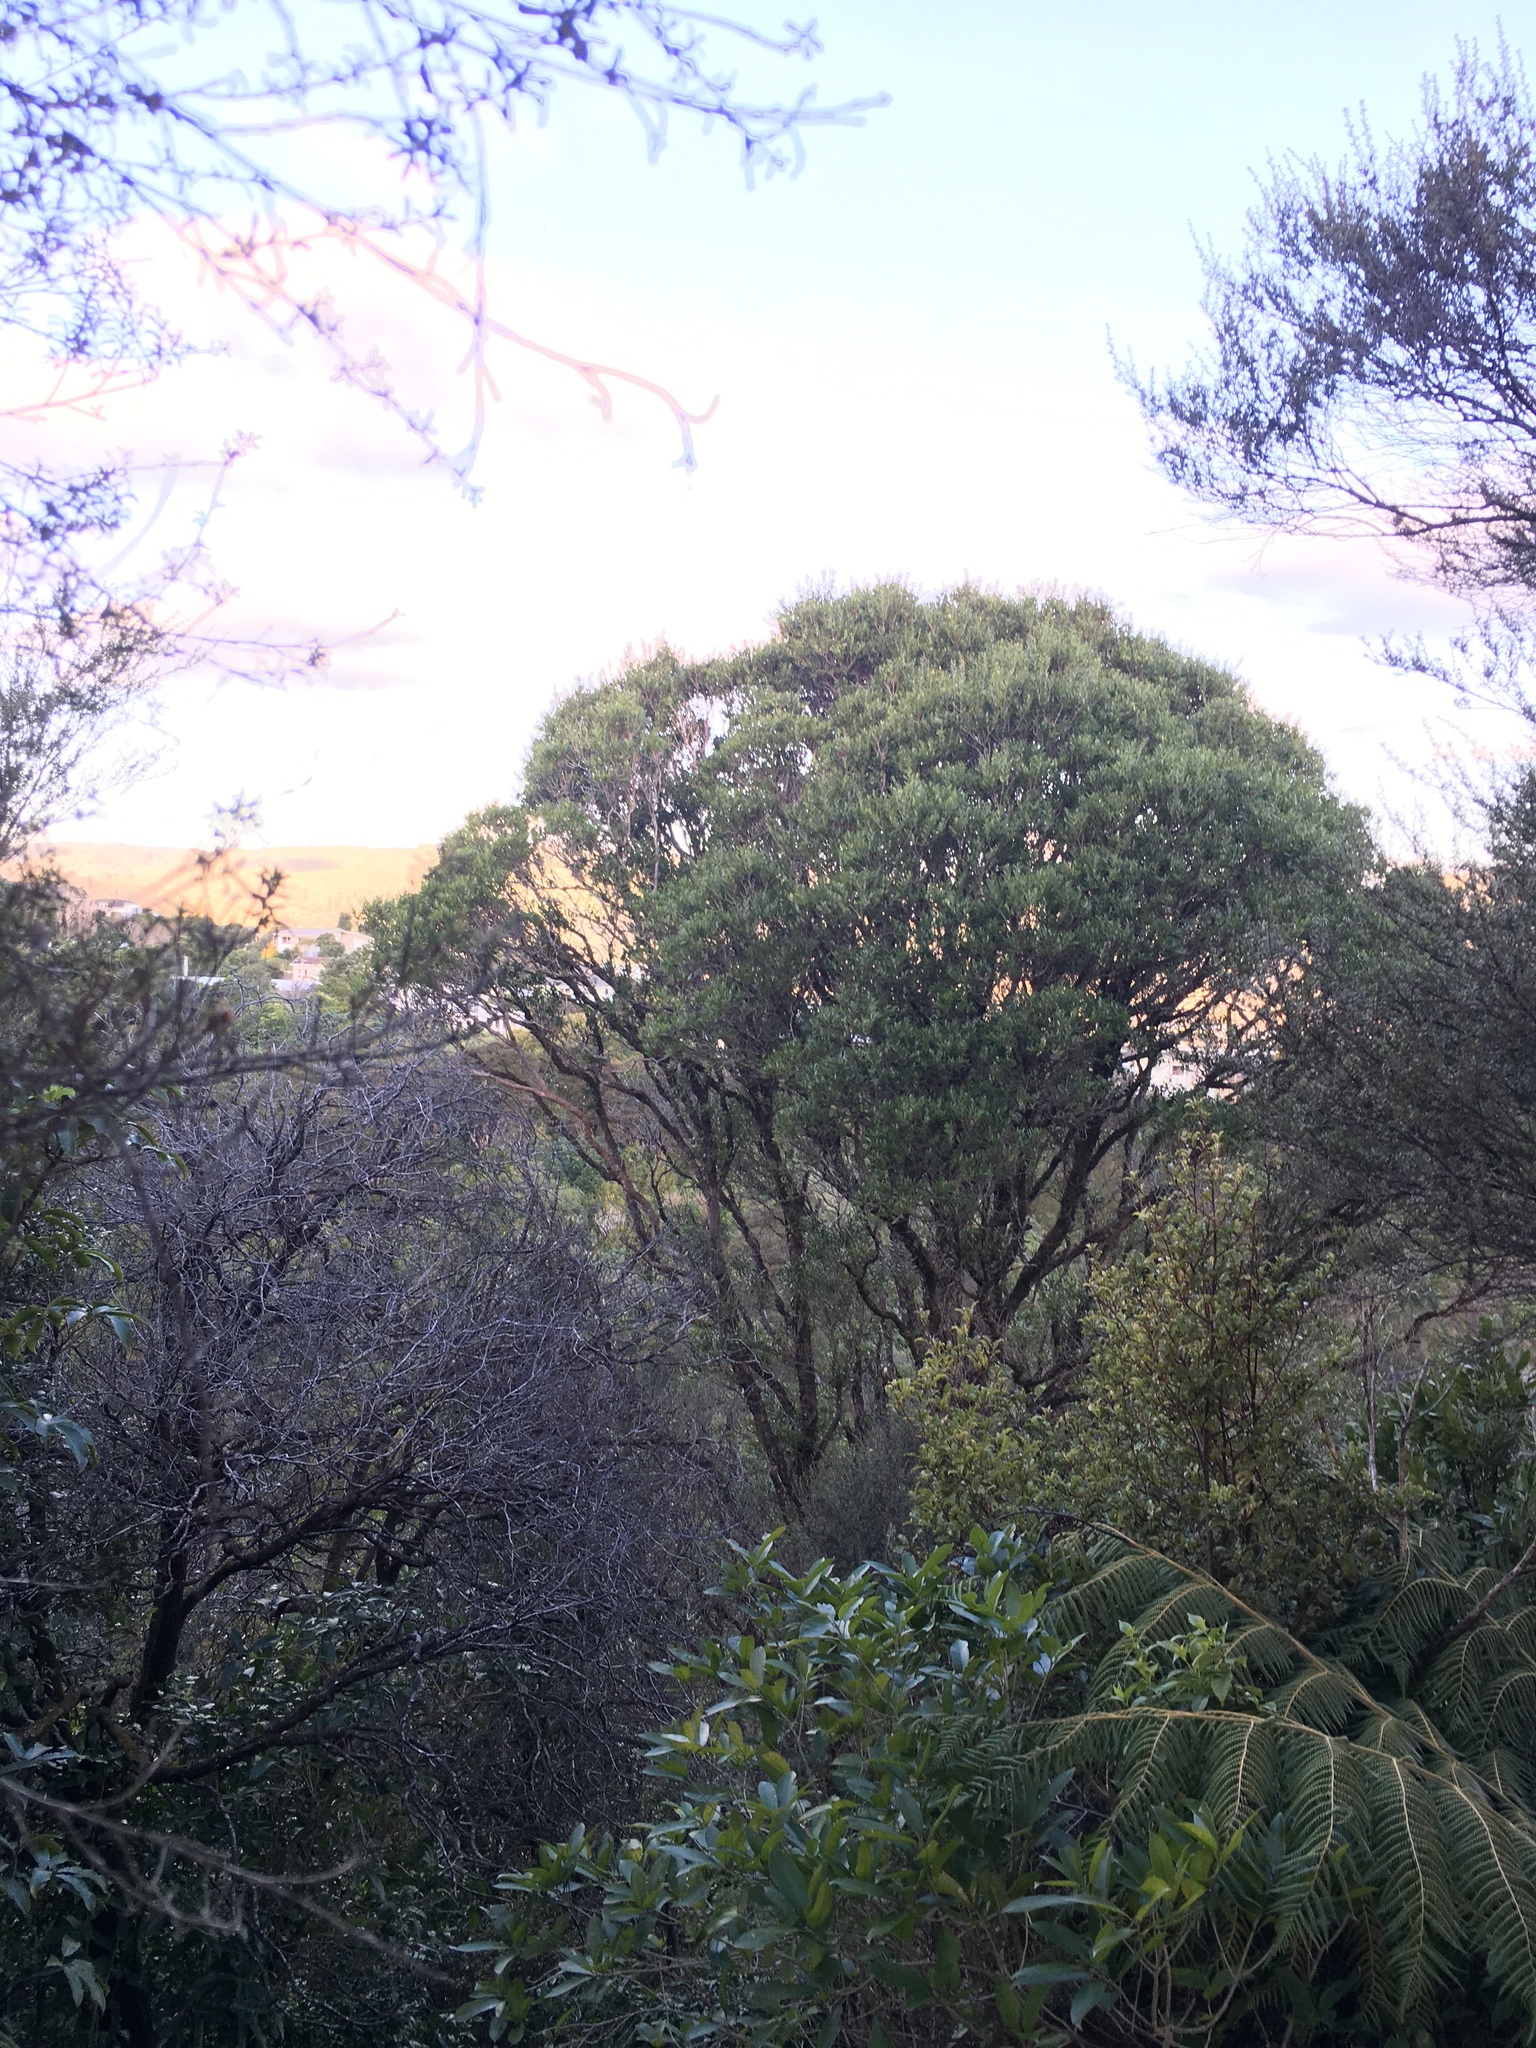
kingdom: Plantae
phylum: Tracheophyta
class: Magnoliopsida
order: Myrtales
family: Myrtaceae
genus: Metrosideros
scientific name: Metrosideros robusta
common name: Northern rata
